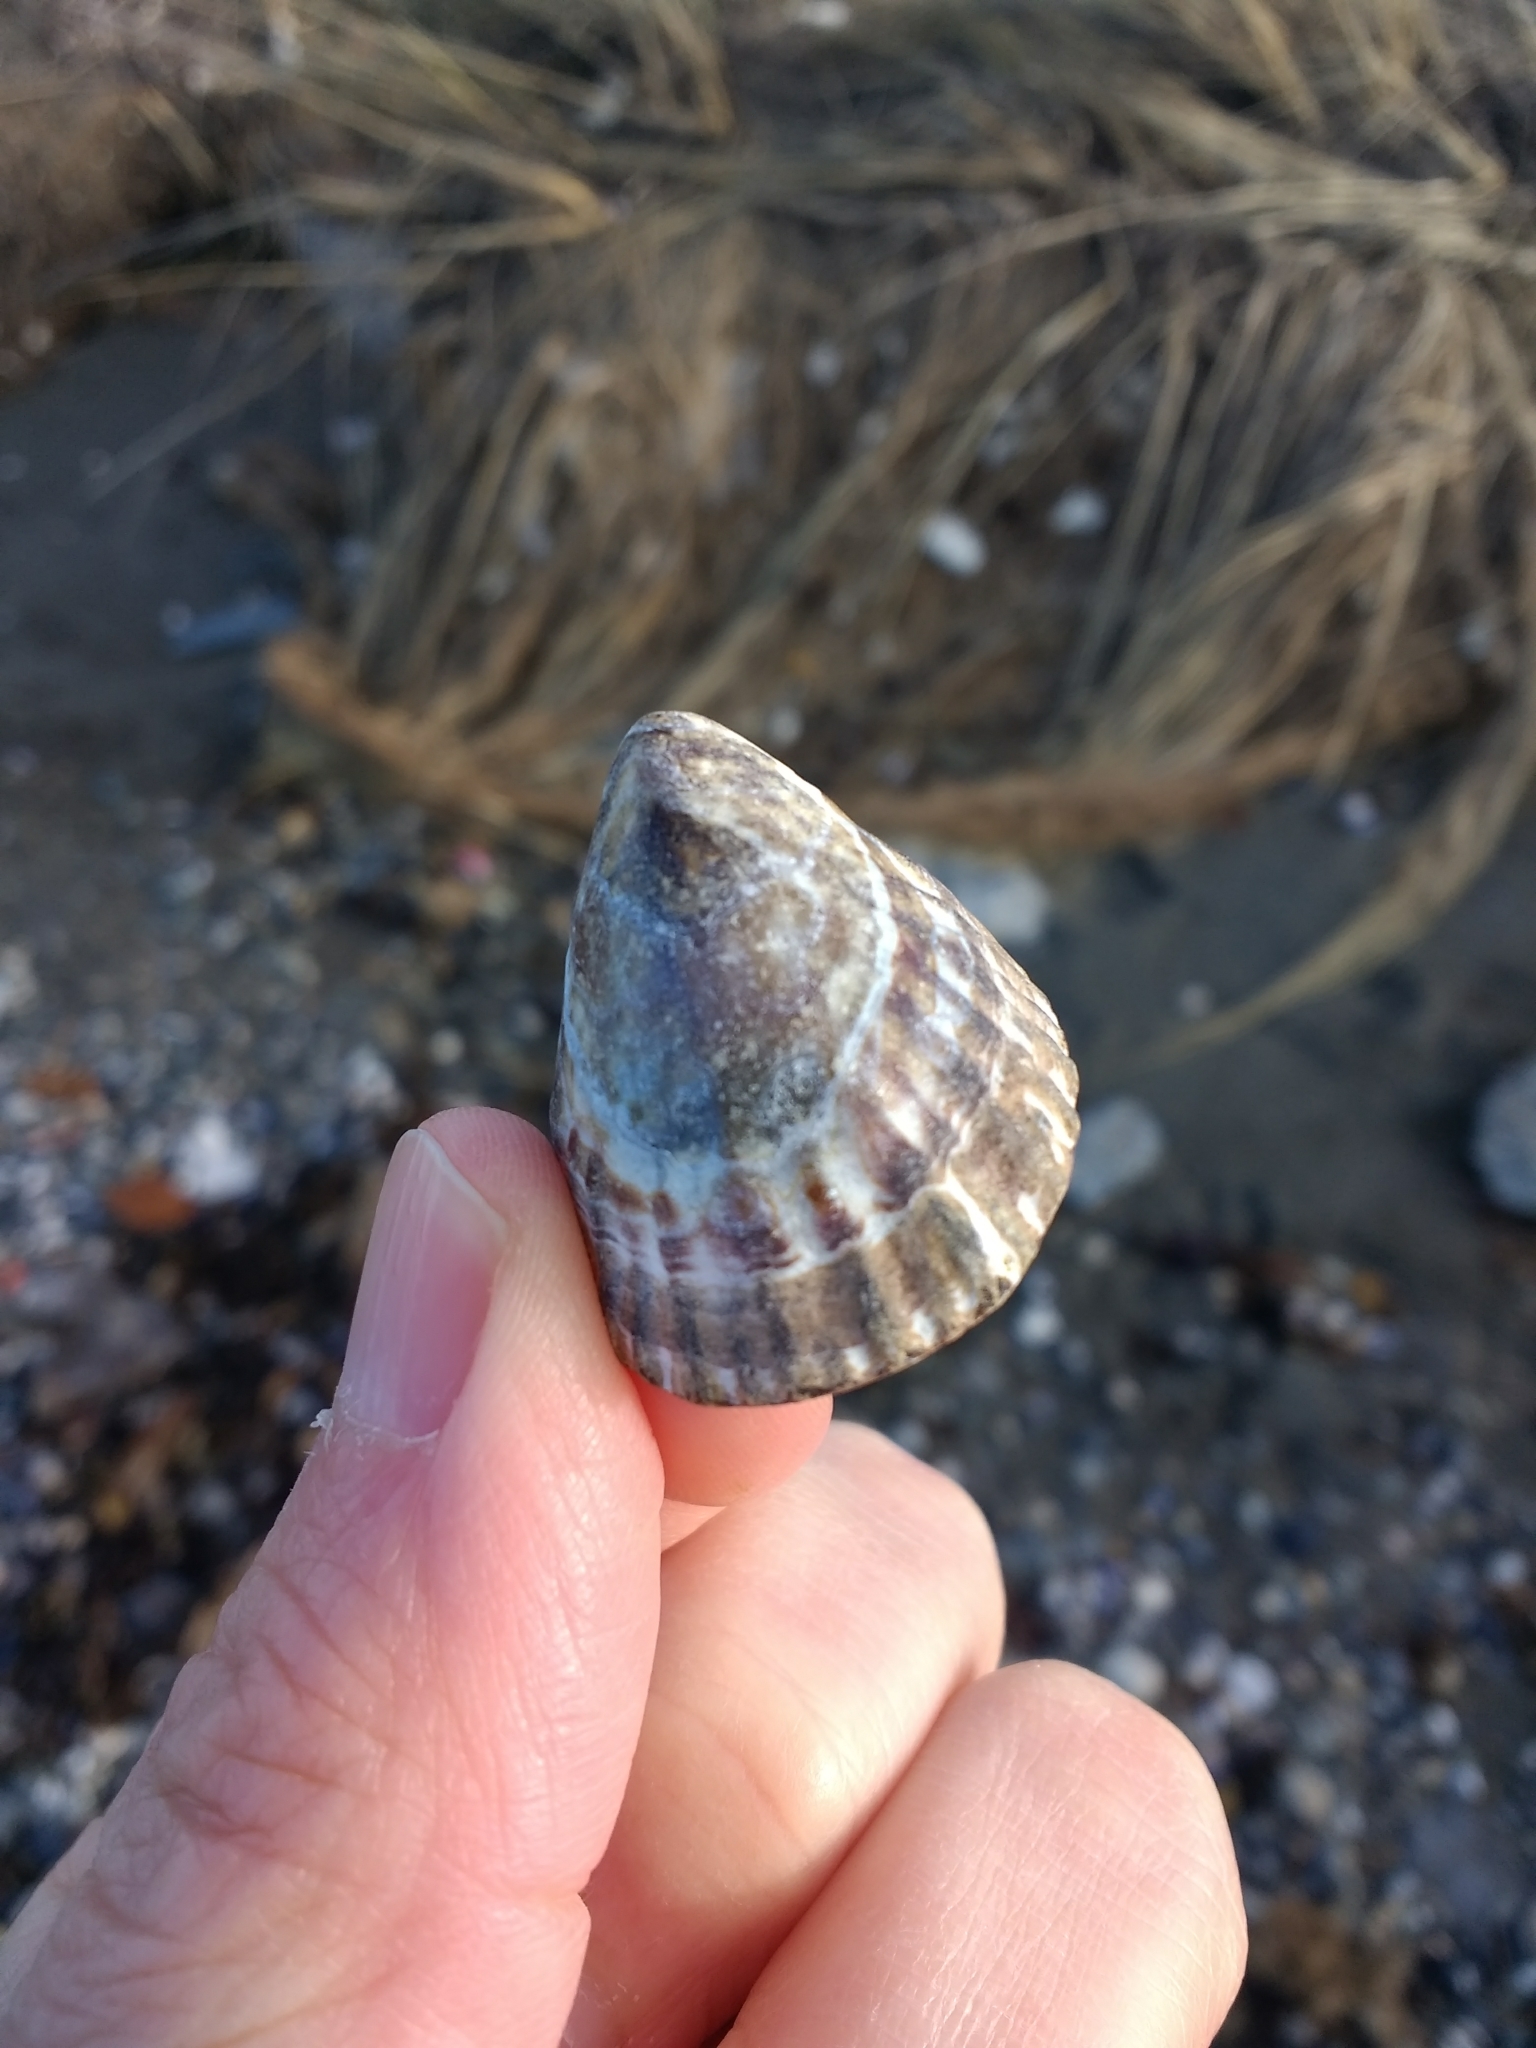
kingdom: Animalia
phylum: Mollusca
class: Gastropoda
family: Nacellidae
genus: Nacella
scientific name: Nacella magellanica
